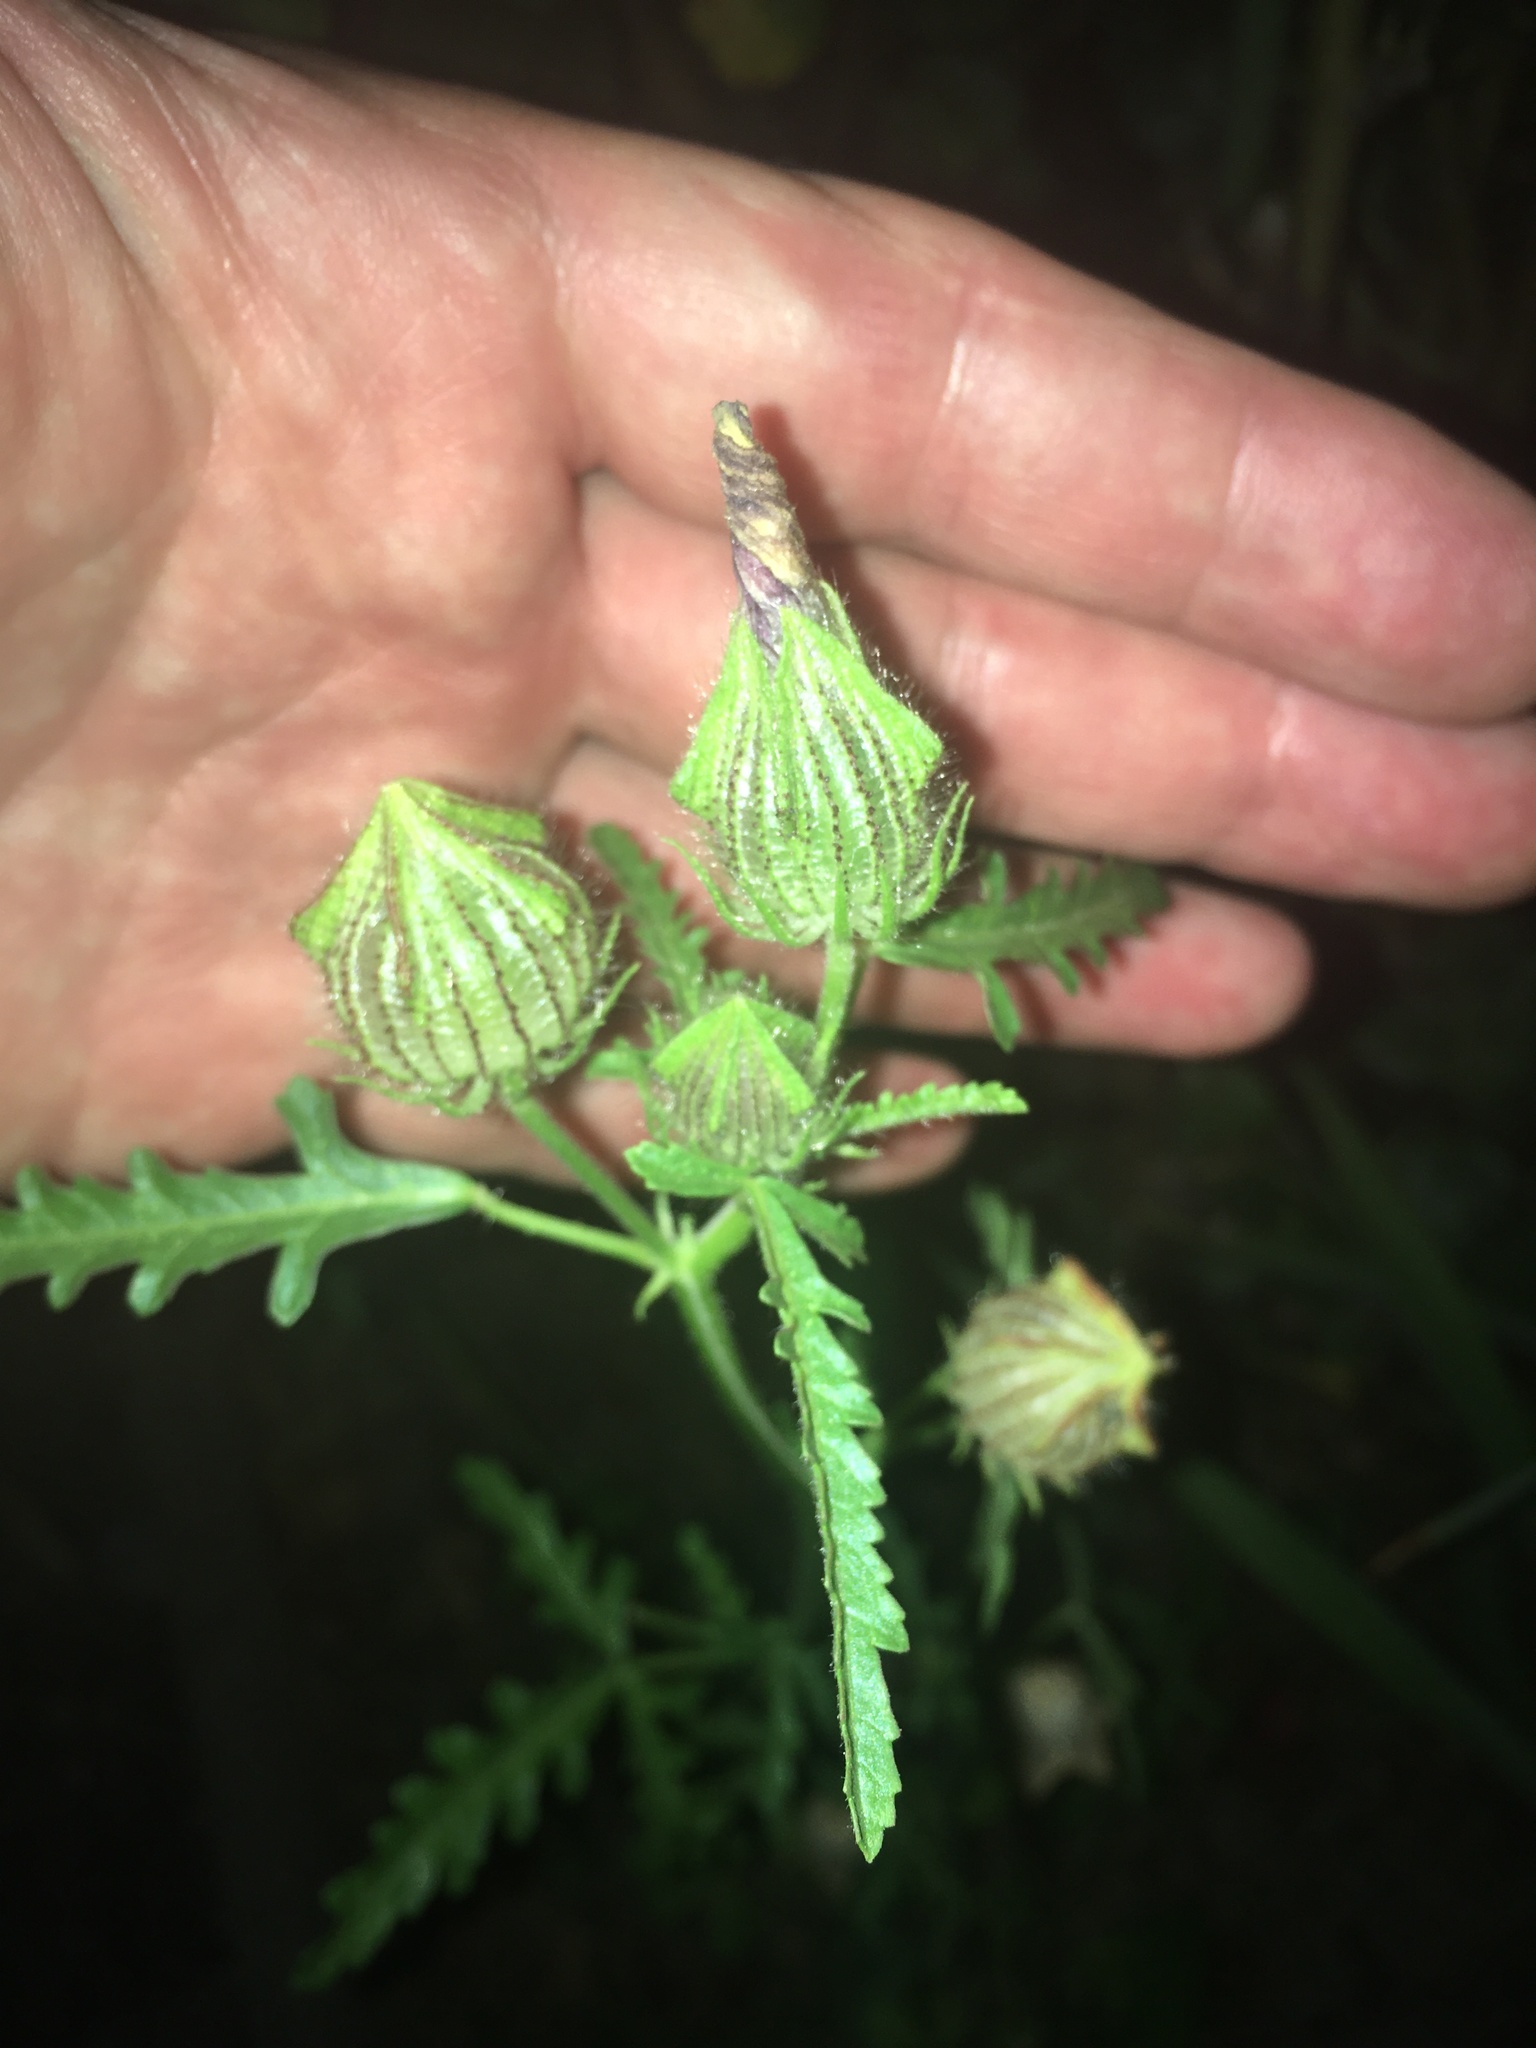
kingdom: Plantae
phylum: Tracheophyta
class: Magnoliopsida
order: Malvales
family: Malvaceae
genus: Hibiscus
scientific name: Hibiscus trionum
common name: Bladder ketmia
